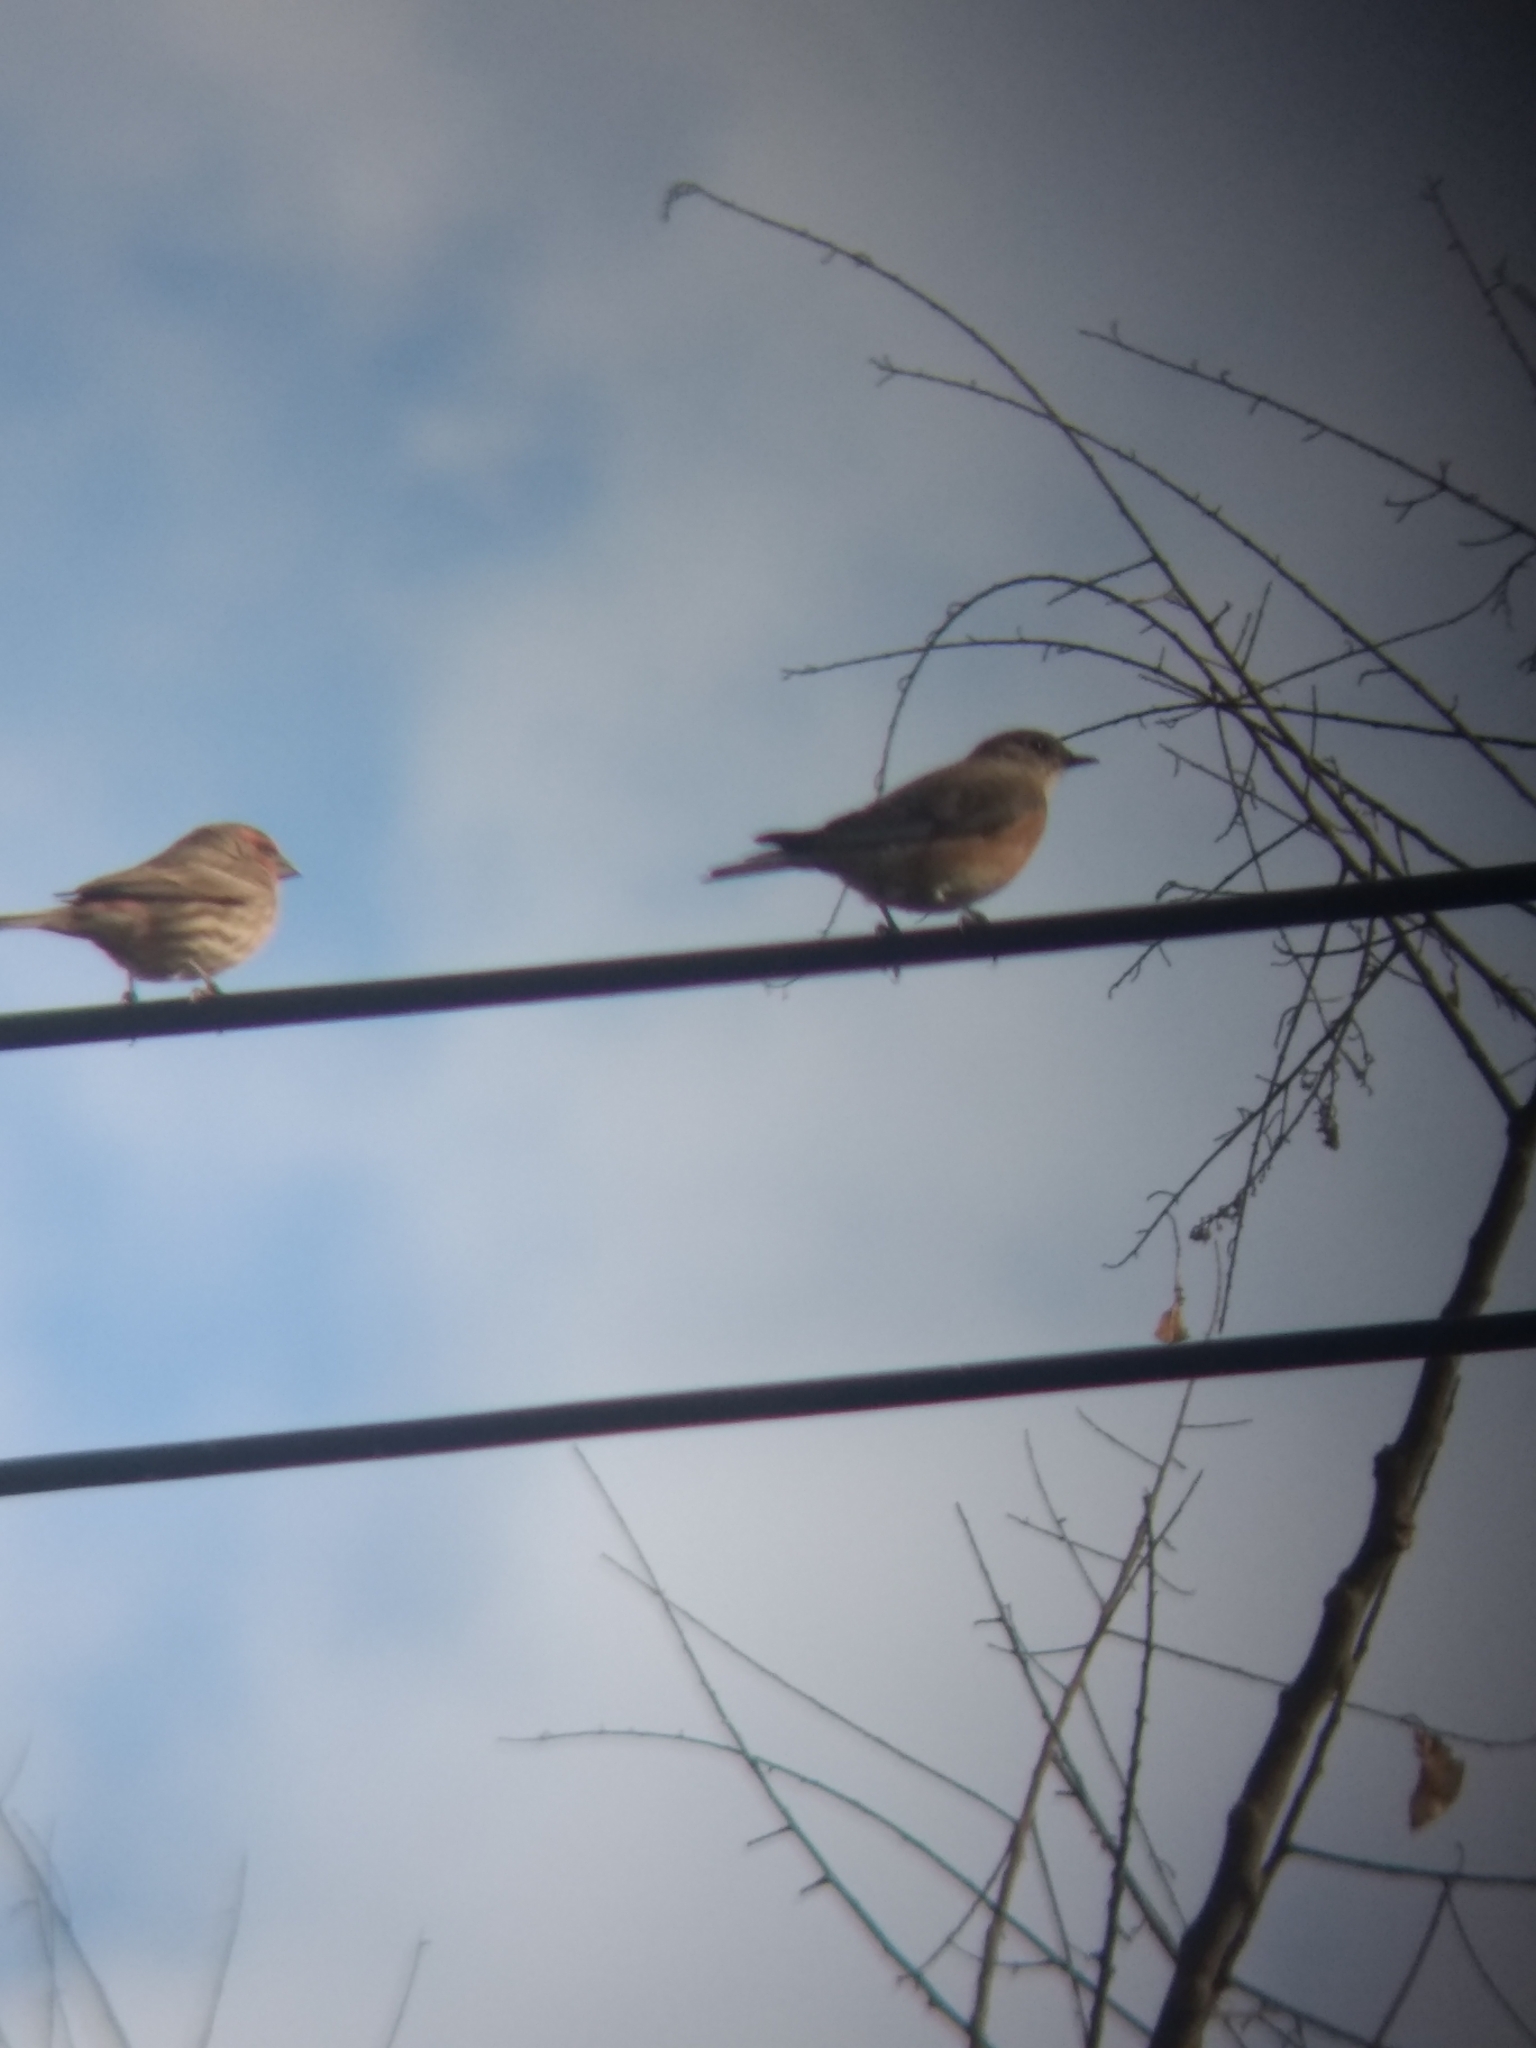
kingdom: Animalia
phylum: Chordata
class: Aves
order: Passeriformes
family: Fringillidae
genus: Haemorhous
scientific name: Haemorhous mexicanus
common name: House finch
